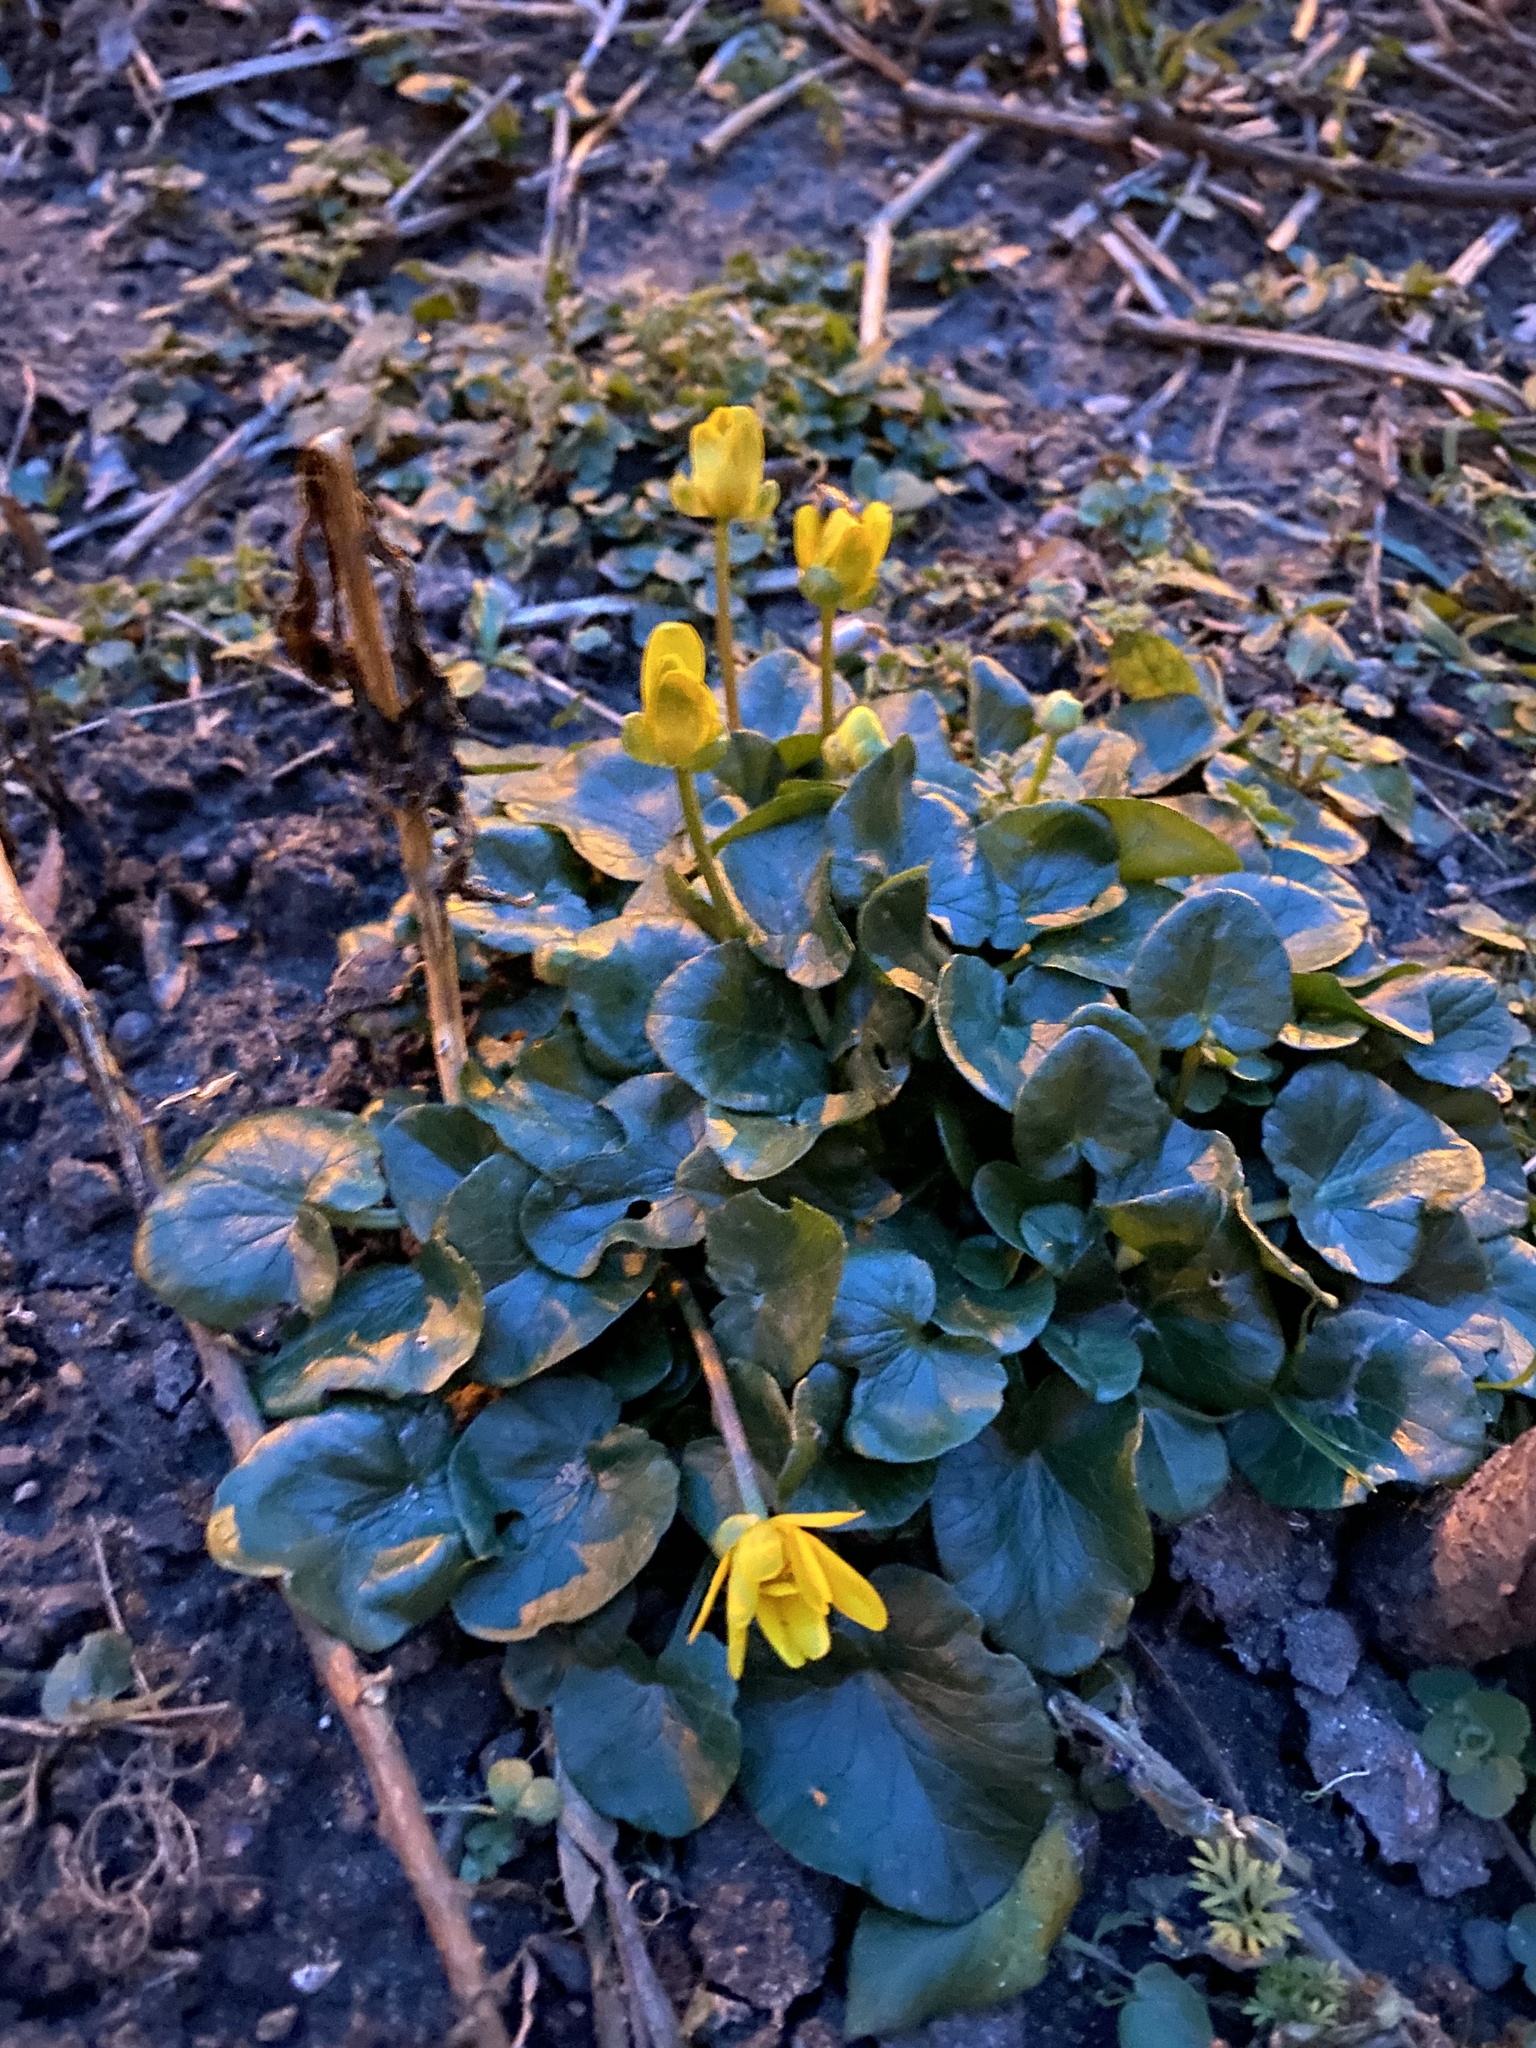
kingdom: Plantae
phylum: Tracheophyta
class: Magnoliopsida
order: Ranunculales
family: Ranunculaceae
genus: Ficaria
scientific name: Ficaria verna
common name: Lesser celandine
